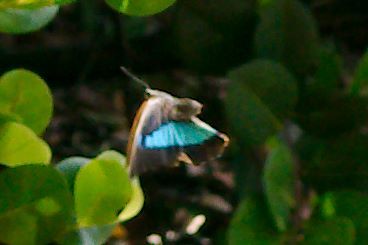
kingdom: Animalia
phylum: Arthropoda
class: Insecta
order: Lepidoptera
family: Nymphalidae
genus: Prepona
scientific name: Prepona laertes
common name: Butterfly
